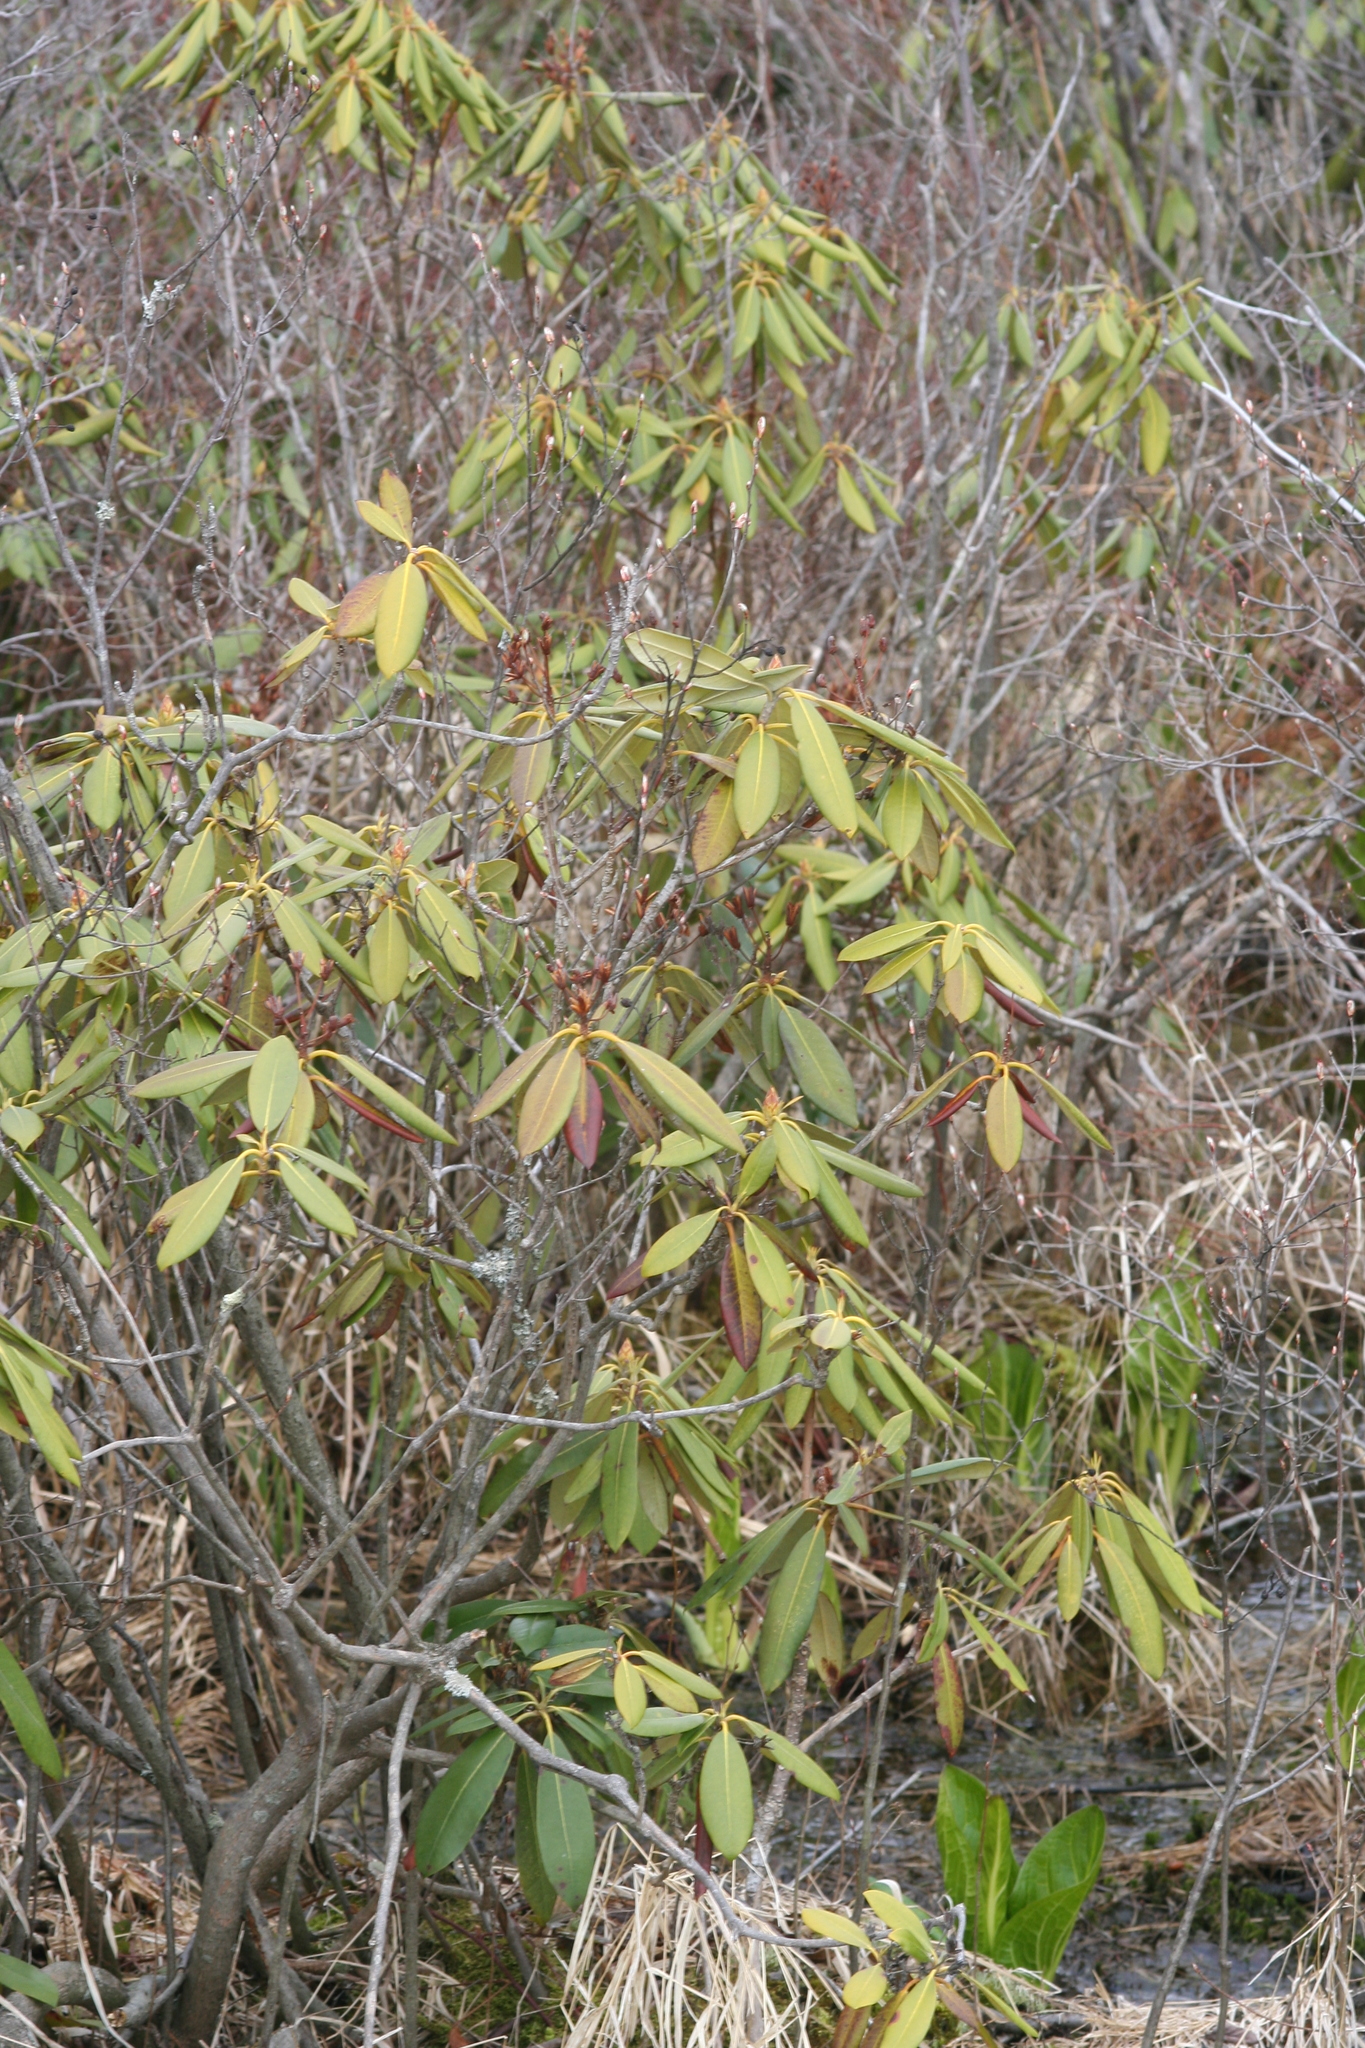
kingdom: Plantae
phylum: Tracheophyta
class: Magnoliopsida
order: Ericales
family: Ericaceae
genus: Rhododendron
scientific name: Rhododendron maximum
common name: Great rhododendron
